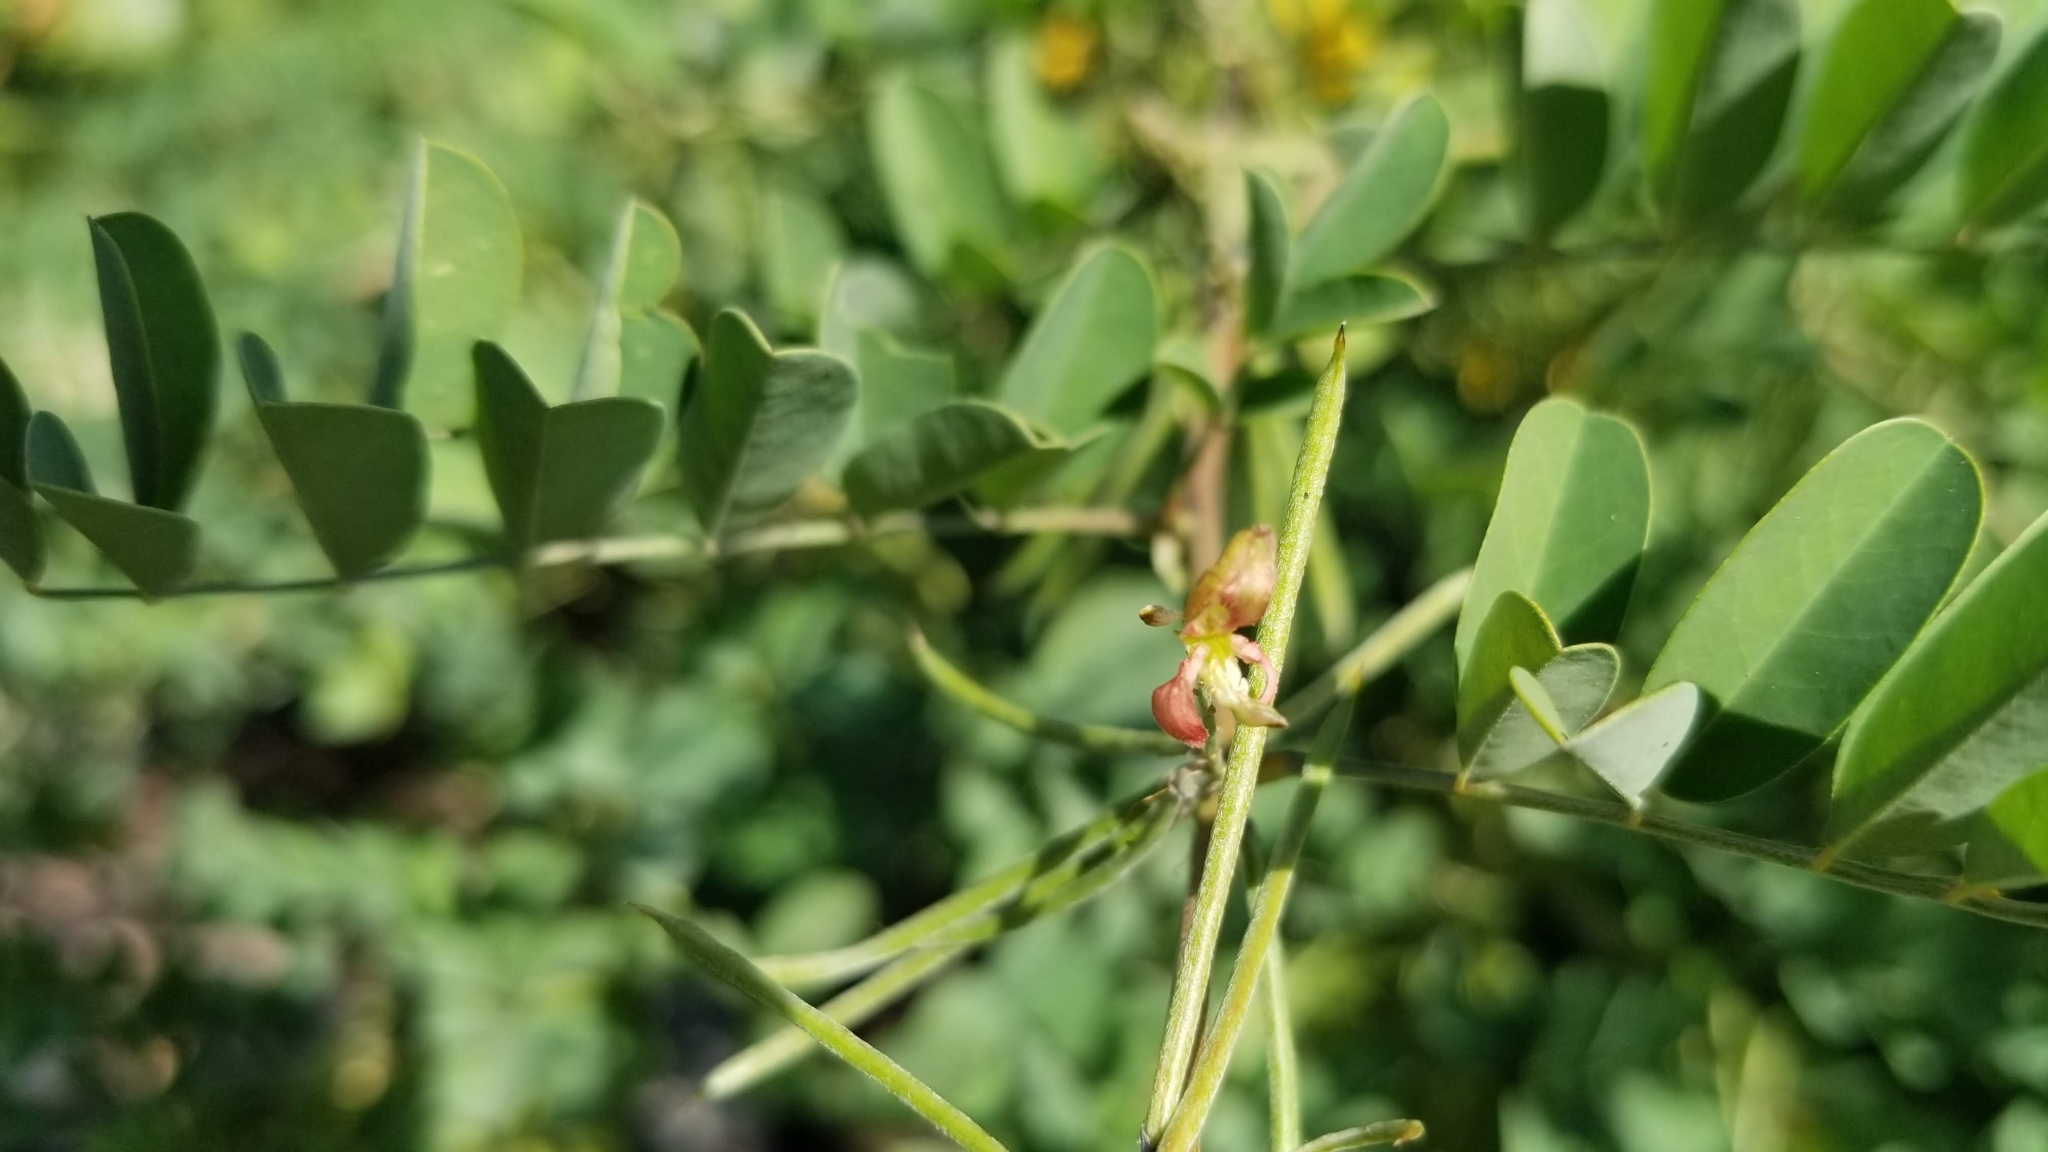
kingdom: Plantae
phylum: Tracheophyta
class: Magnoliopsida
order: Fabales
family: Fabaceae
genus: Indigofera
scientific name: Indigofera tinctoria
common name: True indigo
